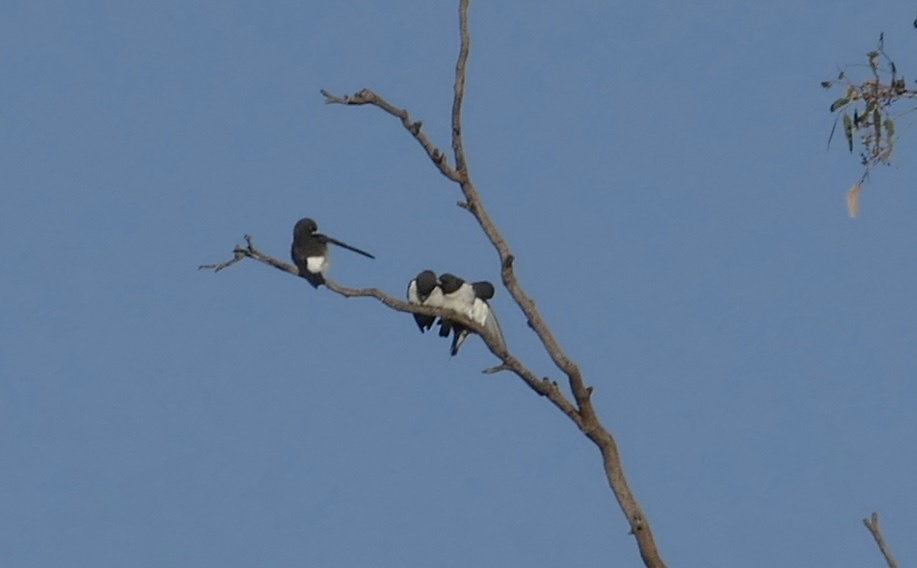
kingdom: Animalia
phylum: Chordata
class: Aves
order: Passeriformes
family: Artamidae
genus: Artamus
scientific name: Artamus leucoryn
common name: White-breasted woodswallow
